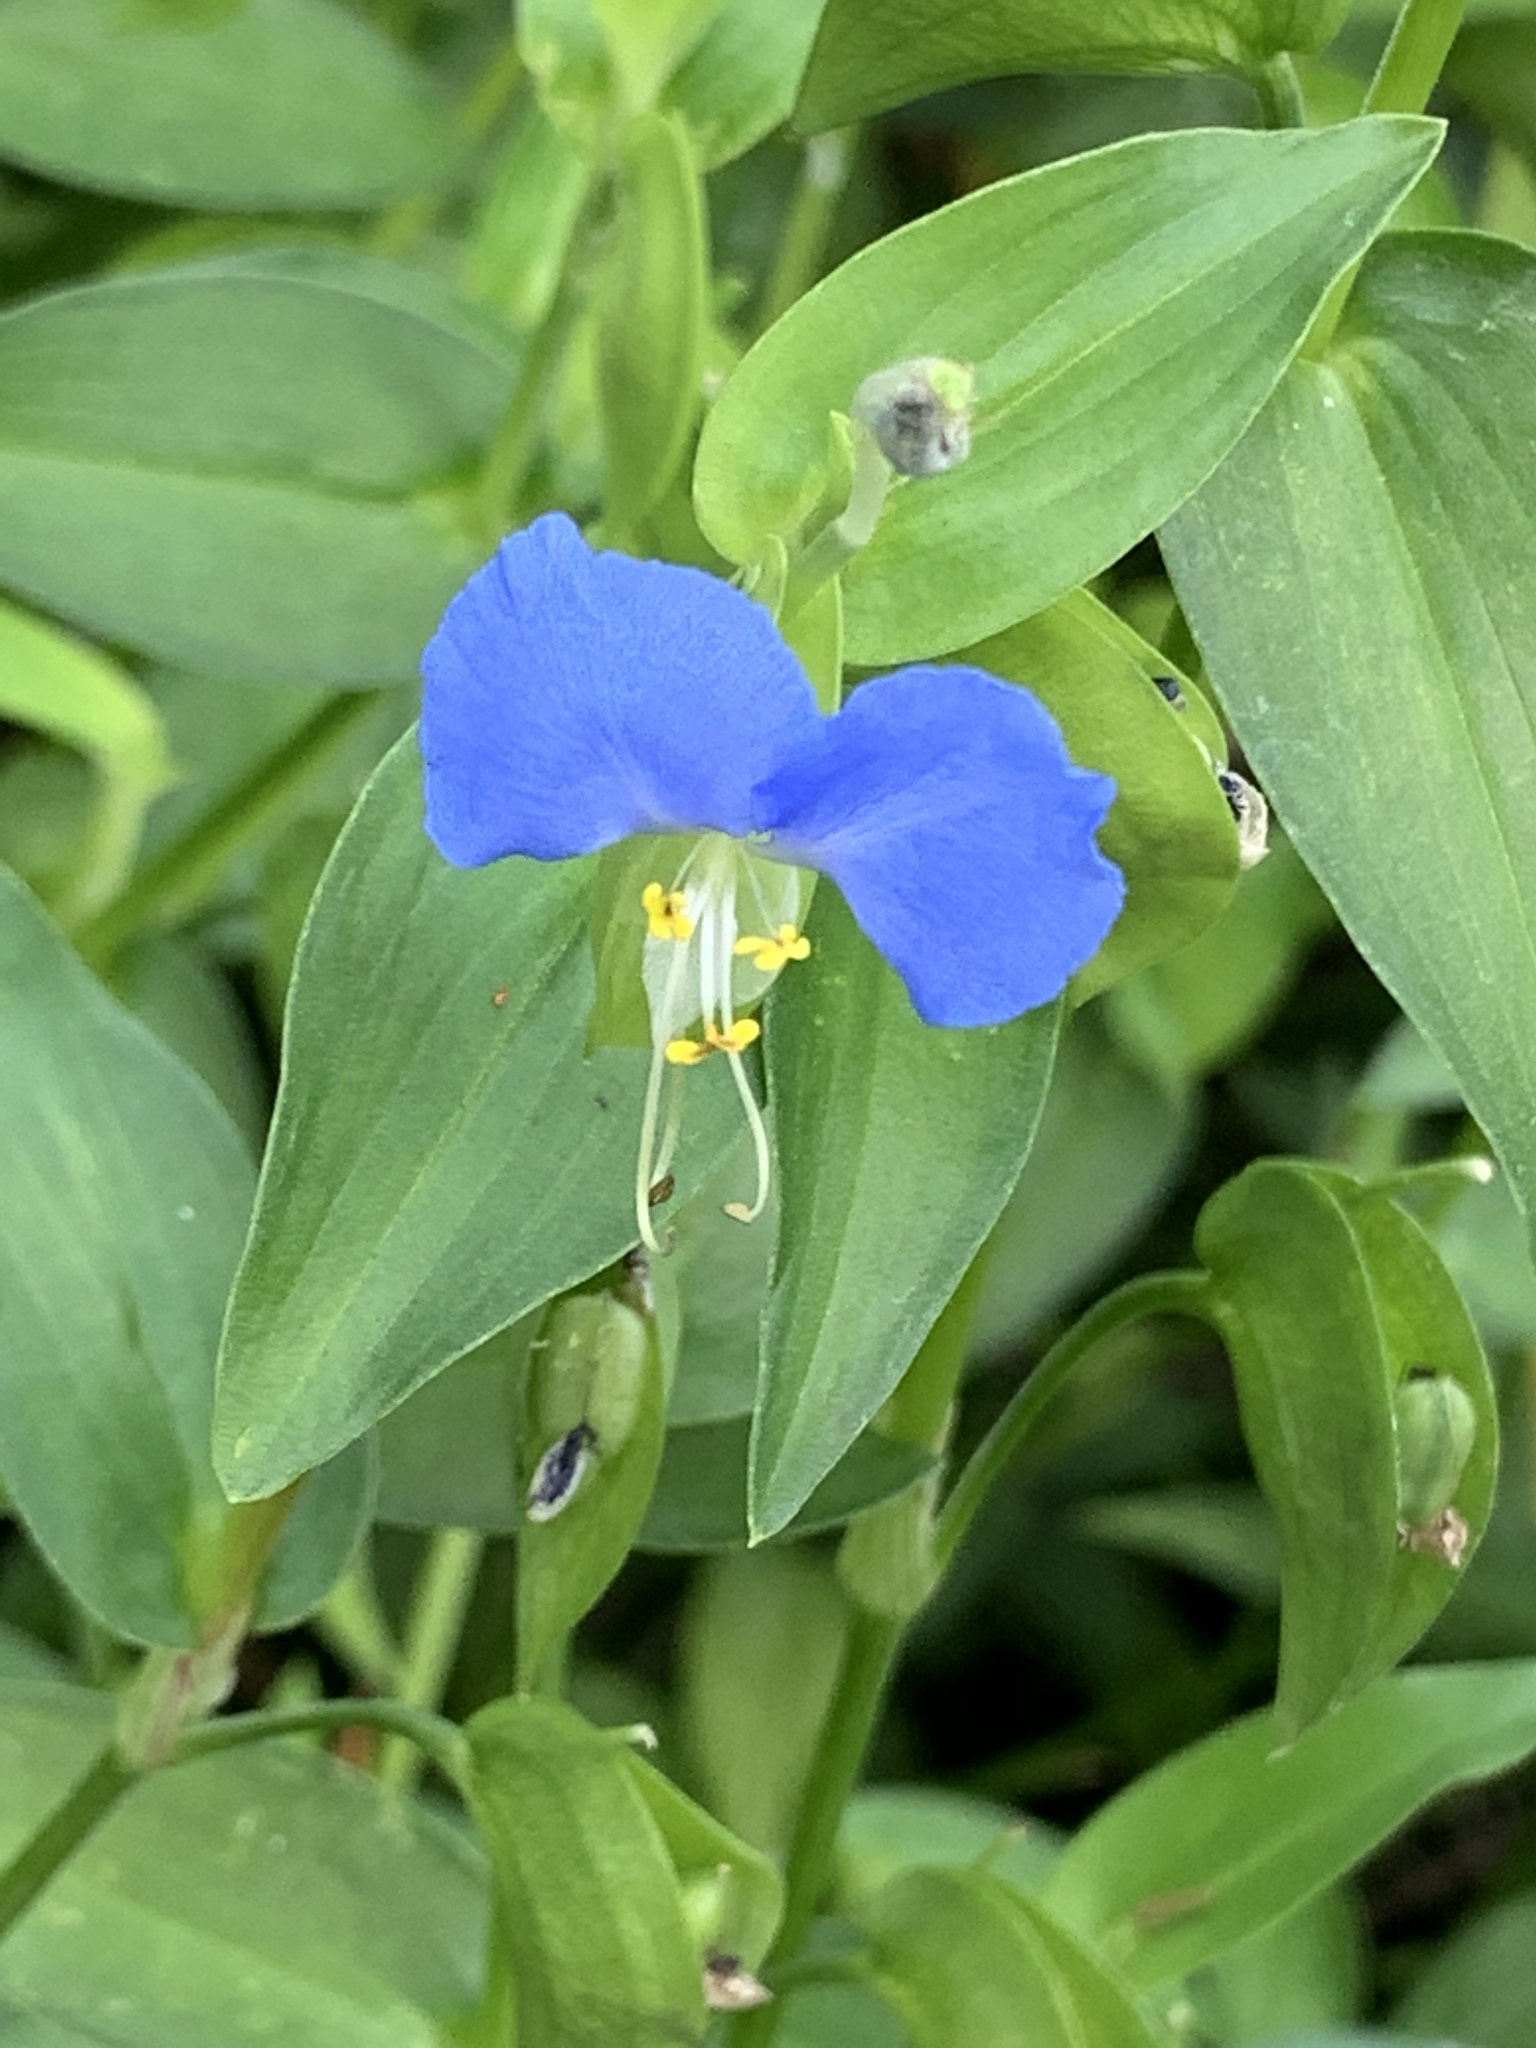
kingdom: Plantae
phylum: Tracheophyta
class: Liliopsida
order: Commelinales
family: Commelinaceae
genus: Commelina
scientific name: Commelina communis
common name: Asiatic dayflower
